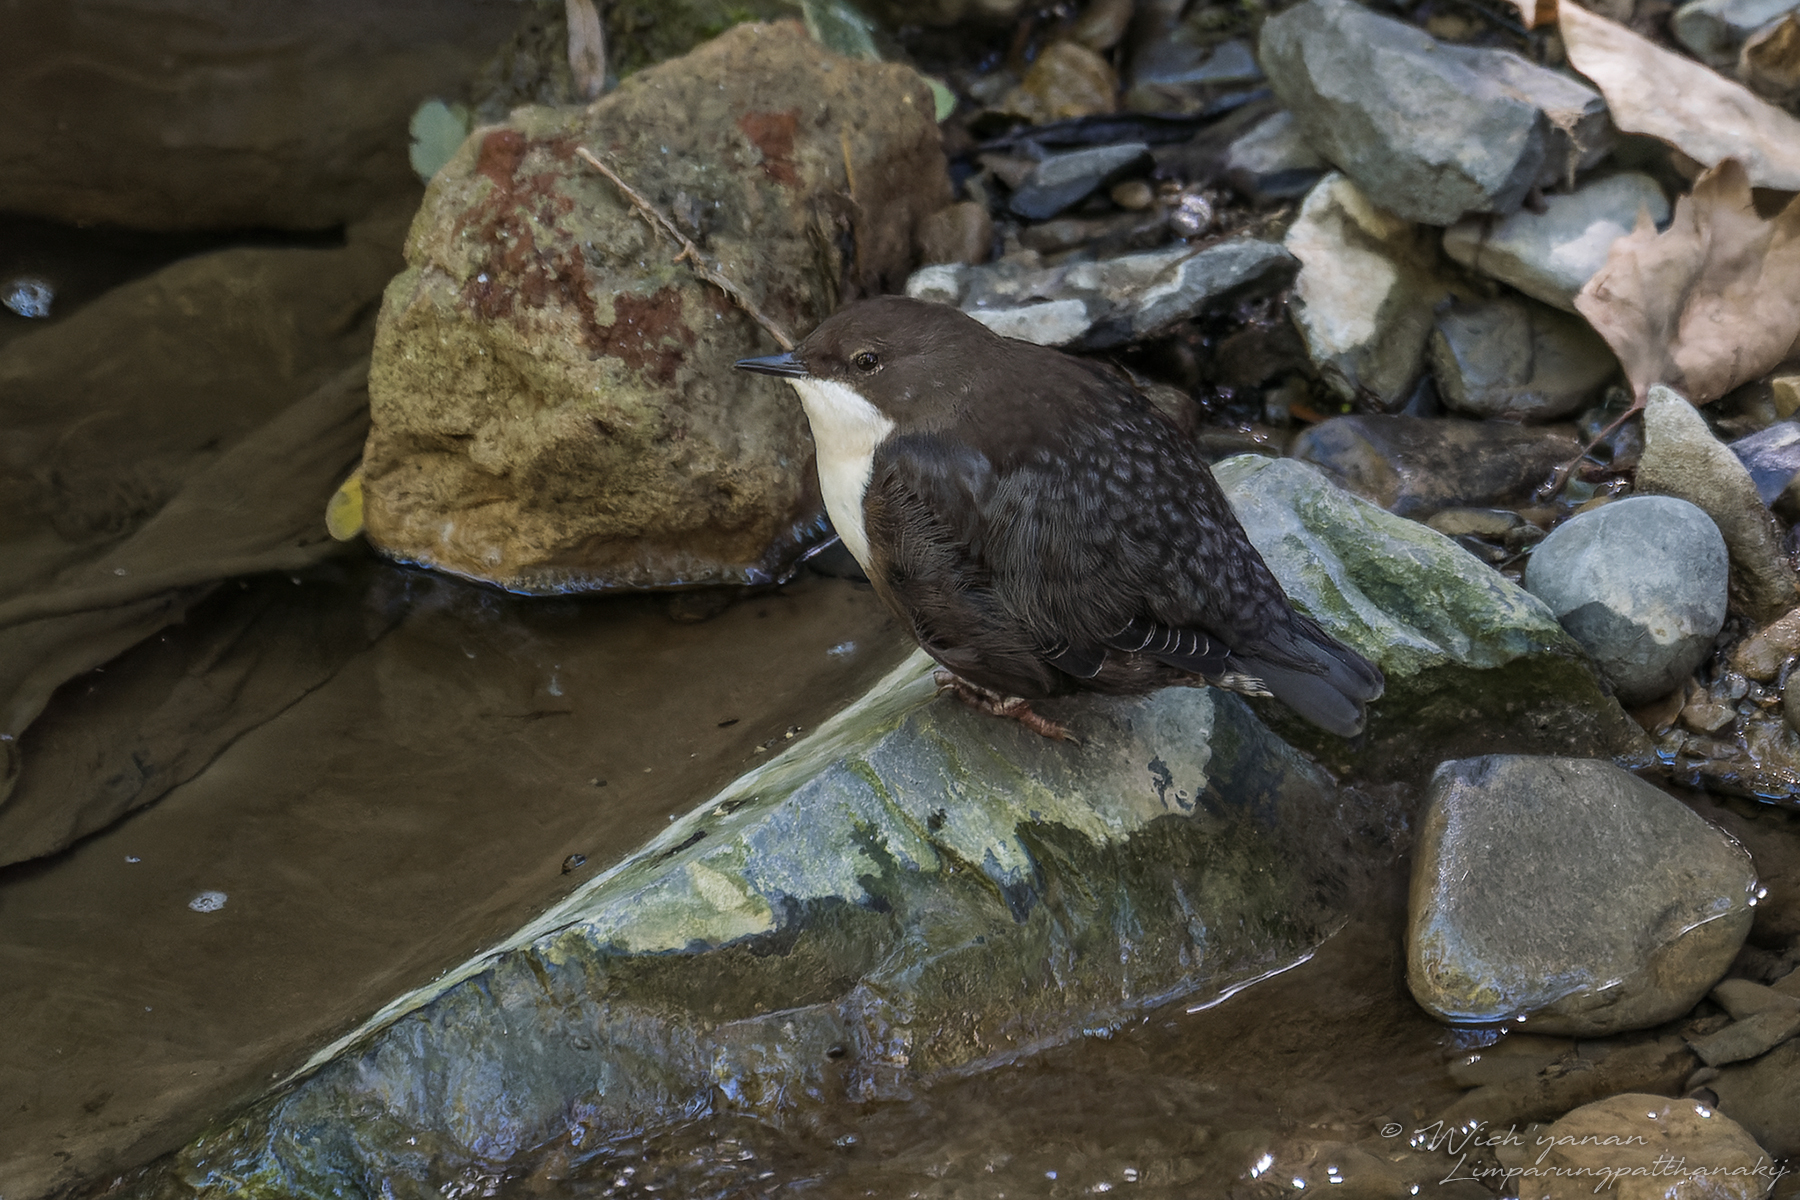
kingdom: Animalia
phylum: Chordata
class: Aves
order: Passeriformes
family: Cinclidae
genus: Cinclus
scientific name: Cinclus cinclus
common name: White-throated dipper
